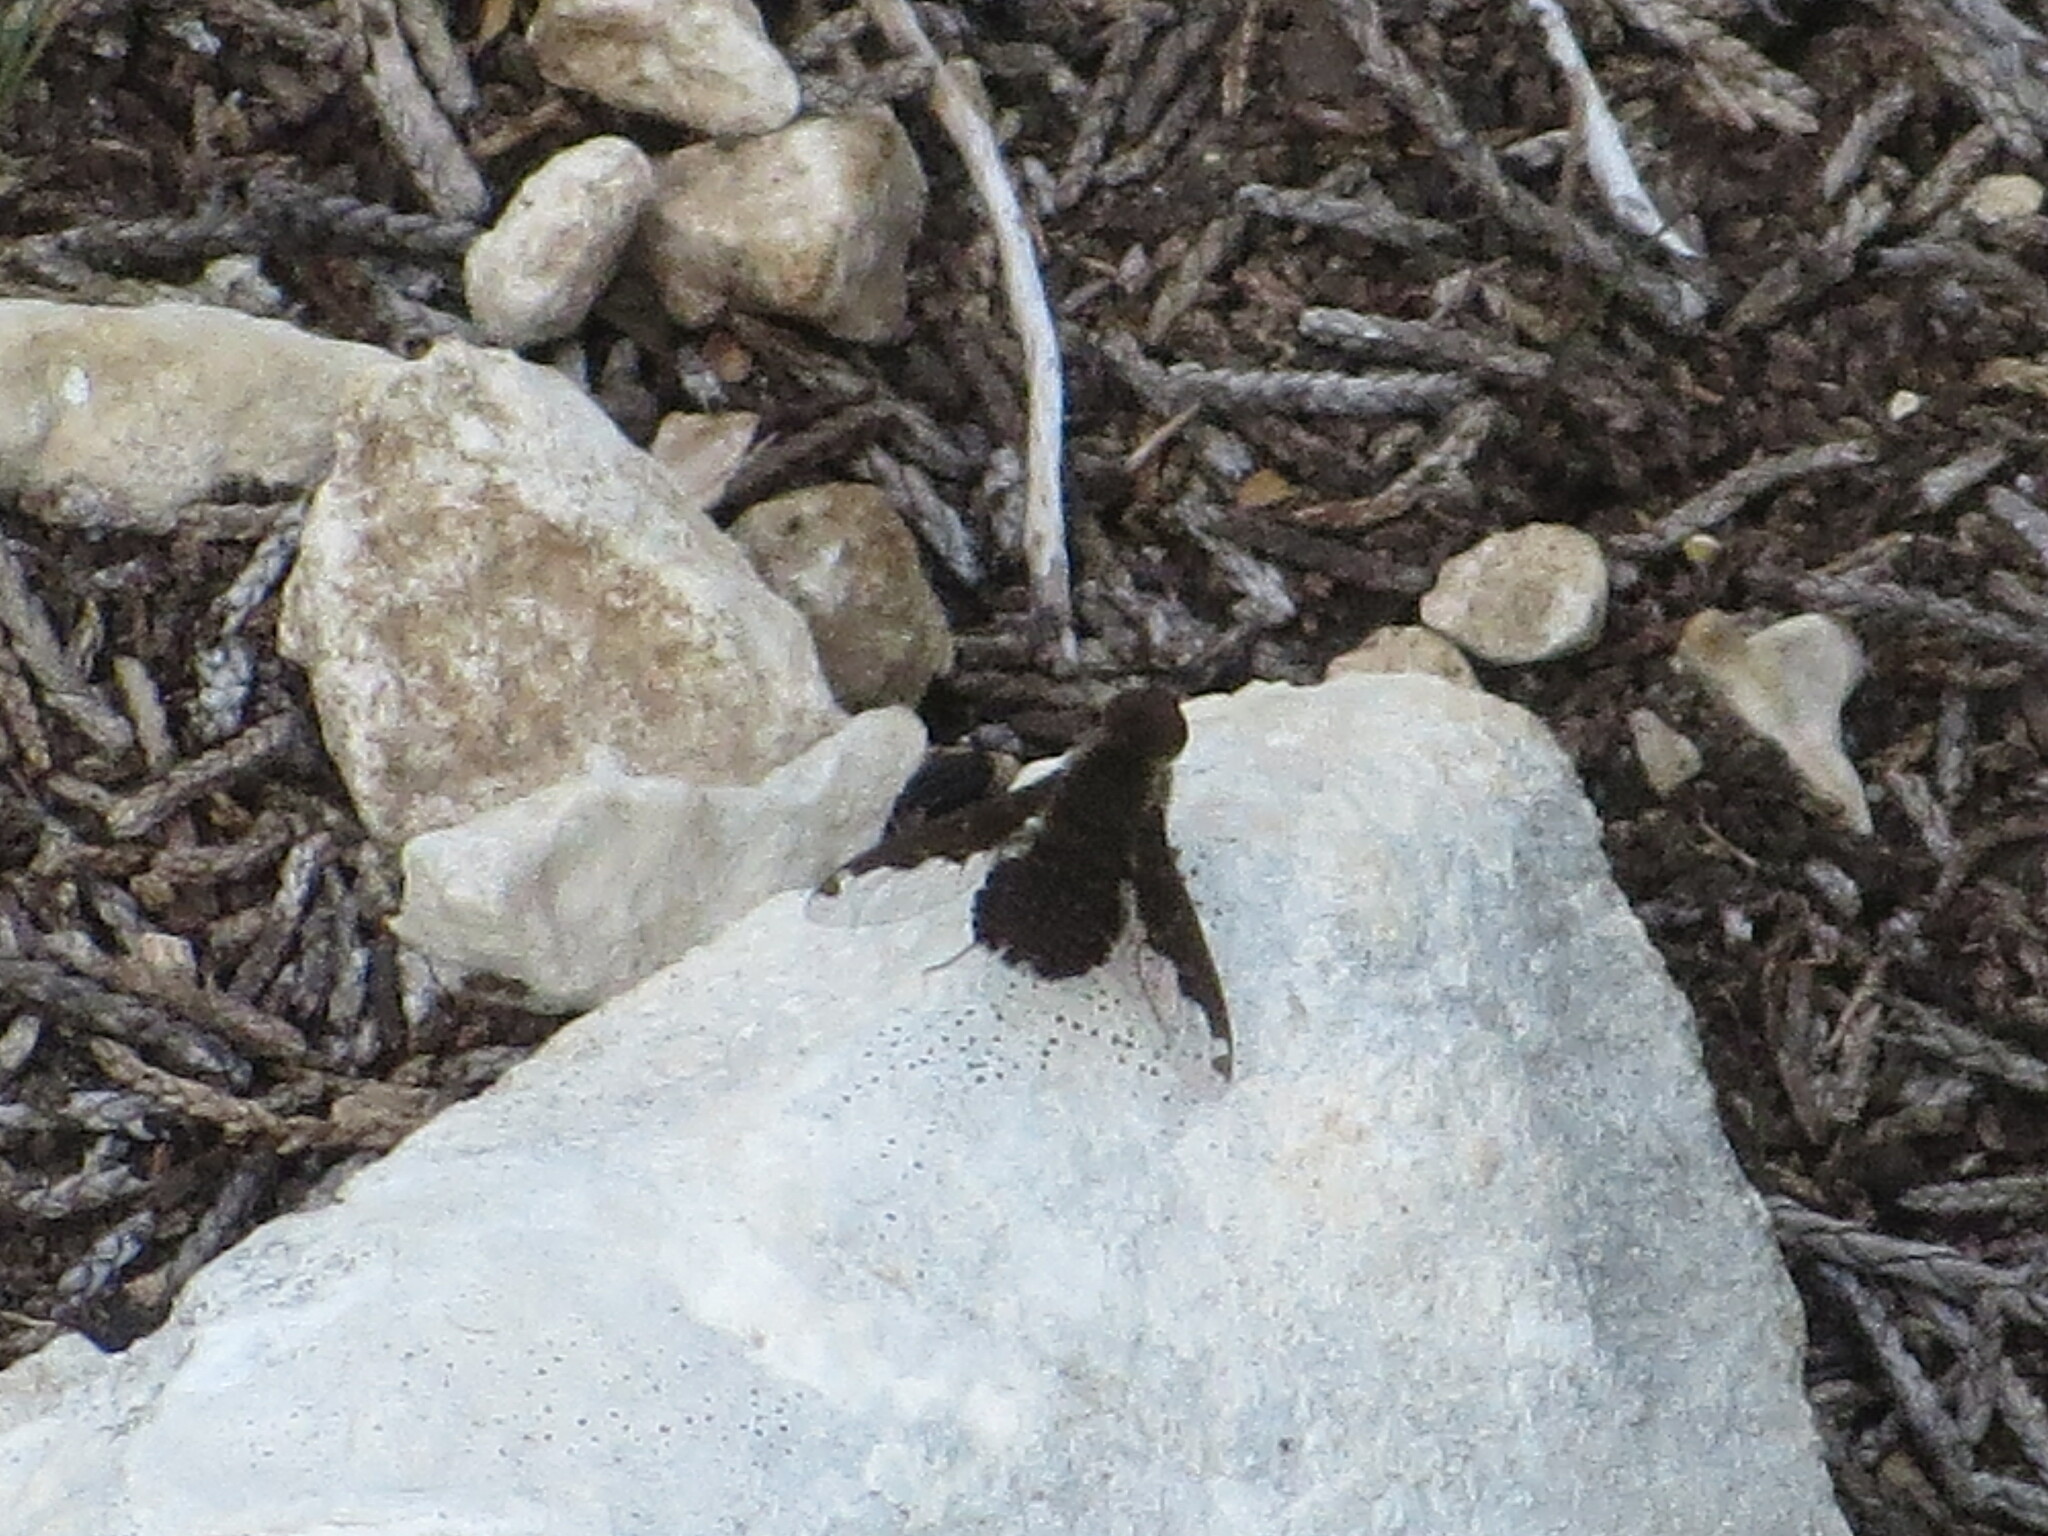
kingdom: Animalia
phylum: Arthropoda
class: Insecta
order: Diptera
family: Bombyliidae
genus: Hemipenthes
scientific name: Hemipenthes scylla
